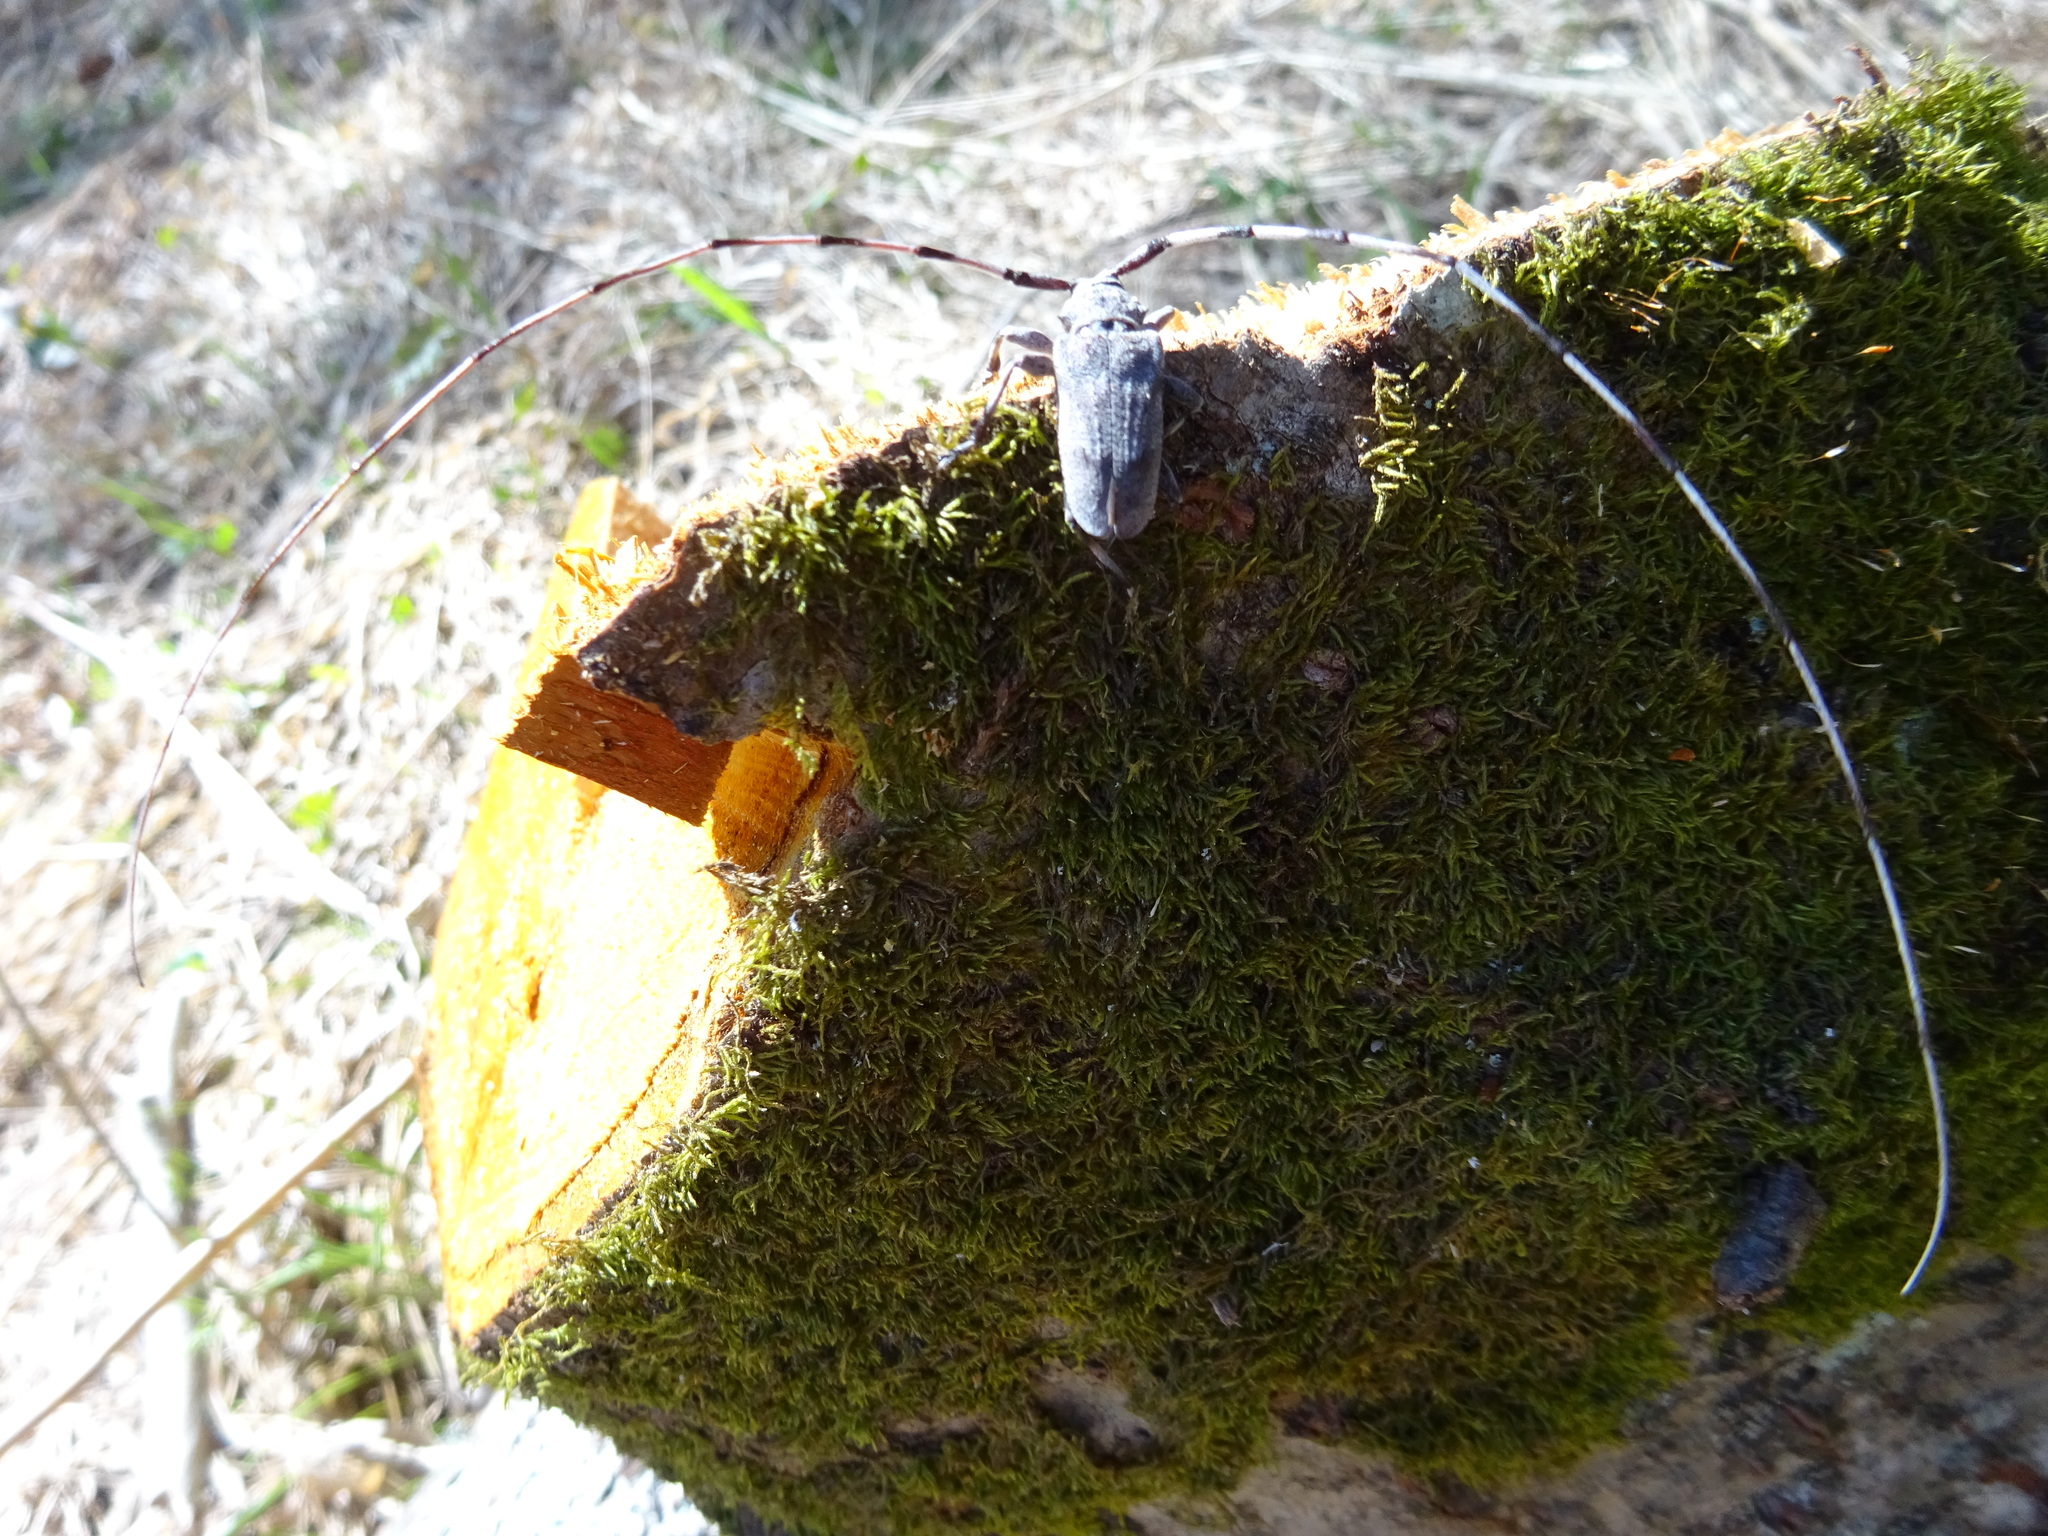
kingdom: Animalia
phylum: Arthropoda
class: Insecta
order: Coleoptera
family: Cerambycidae
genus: Acanthocinus
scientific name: Acanthocinus aedilis
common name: Timberman beetle
